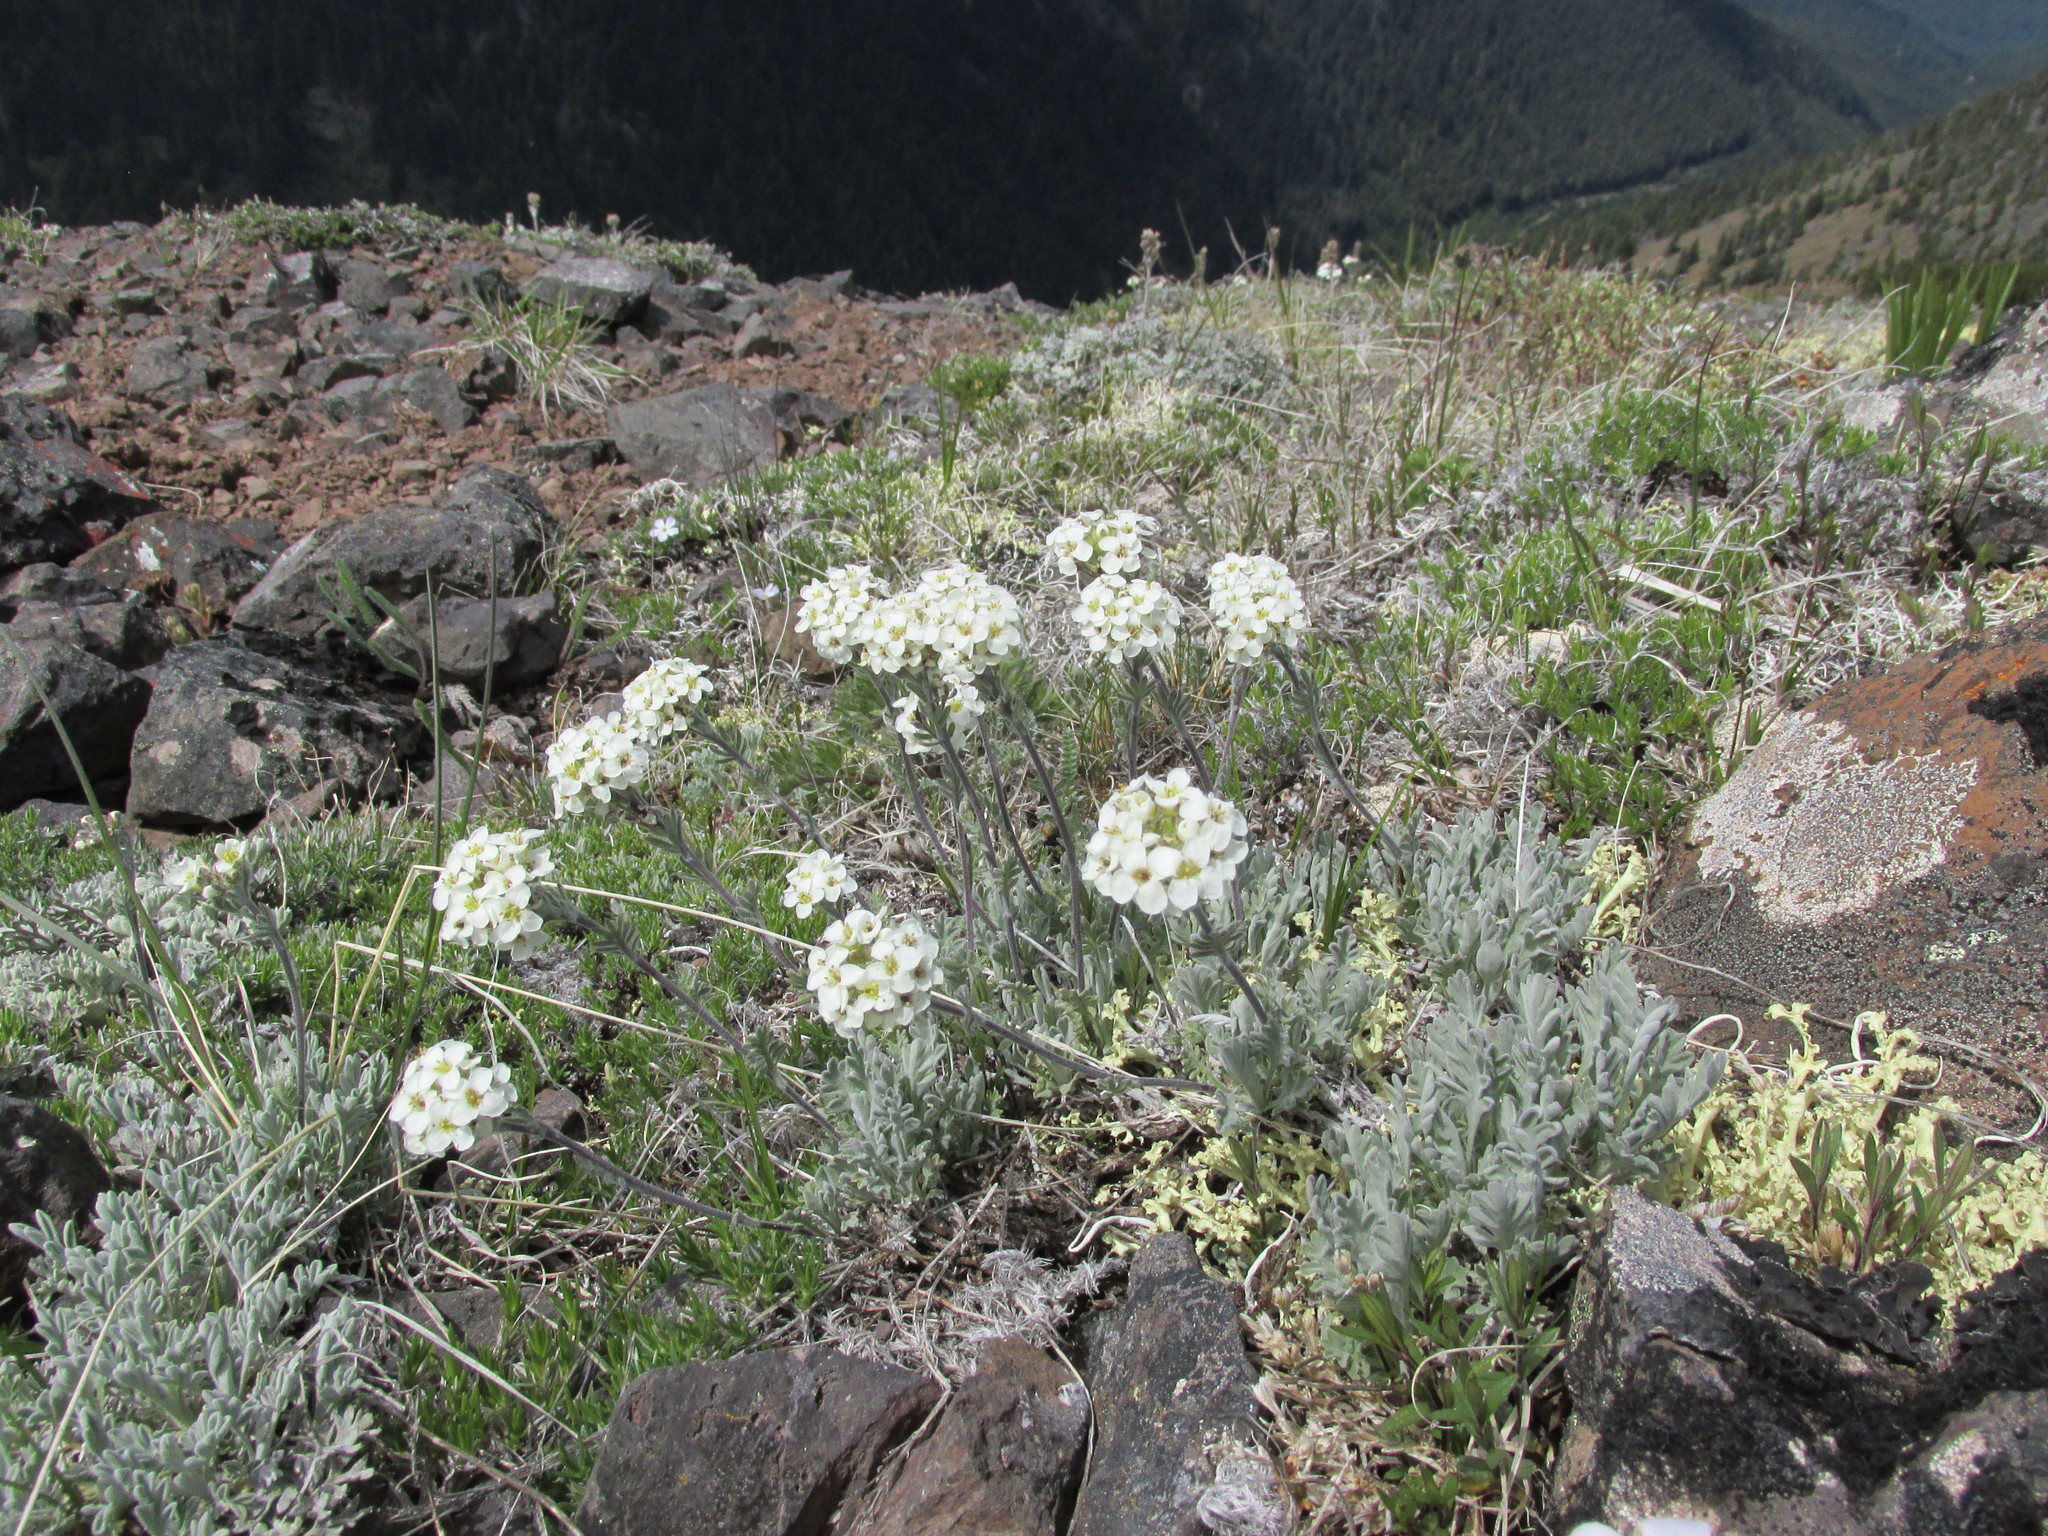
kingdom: Plantae
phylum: Tracheophyta
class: Magnoliopsida
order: Brassicales
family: Brassicaceae
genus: Smelowskia
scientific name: Smelowskia americana
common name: American false candytuft
